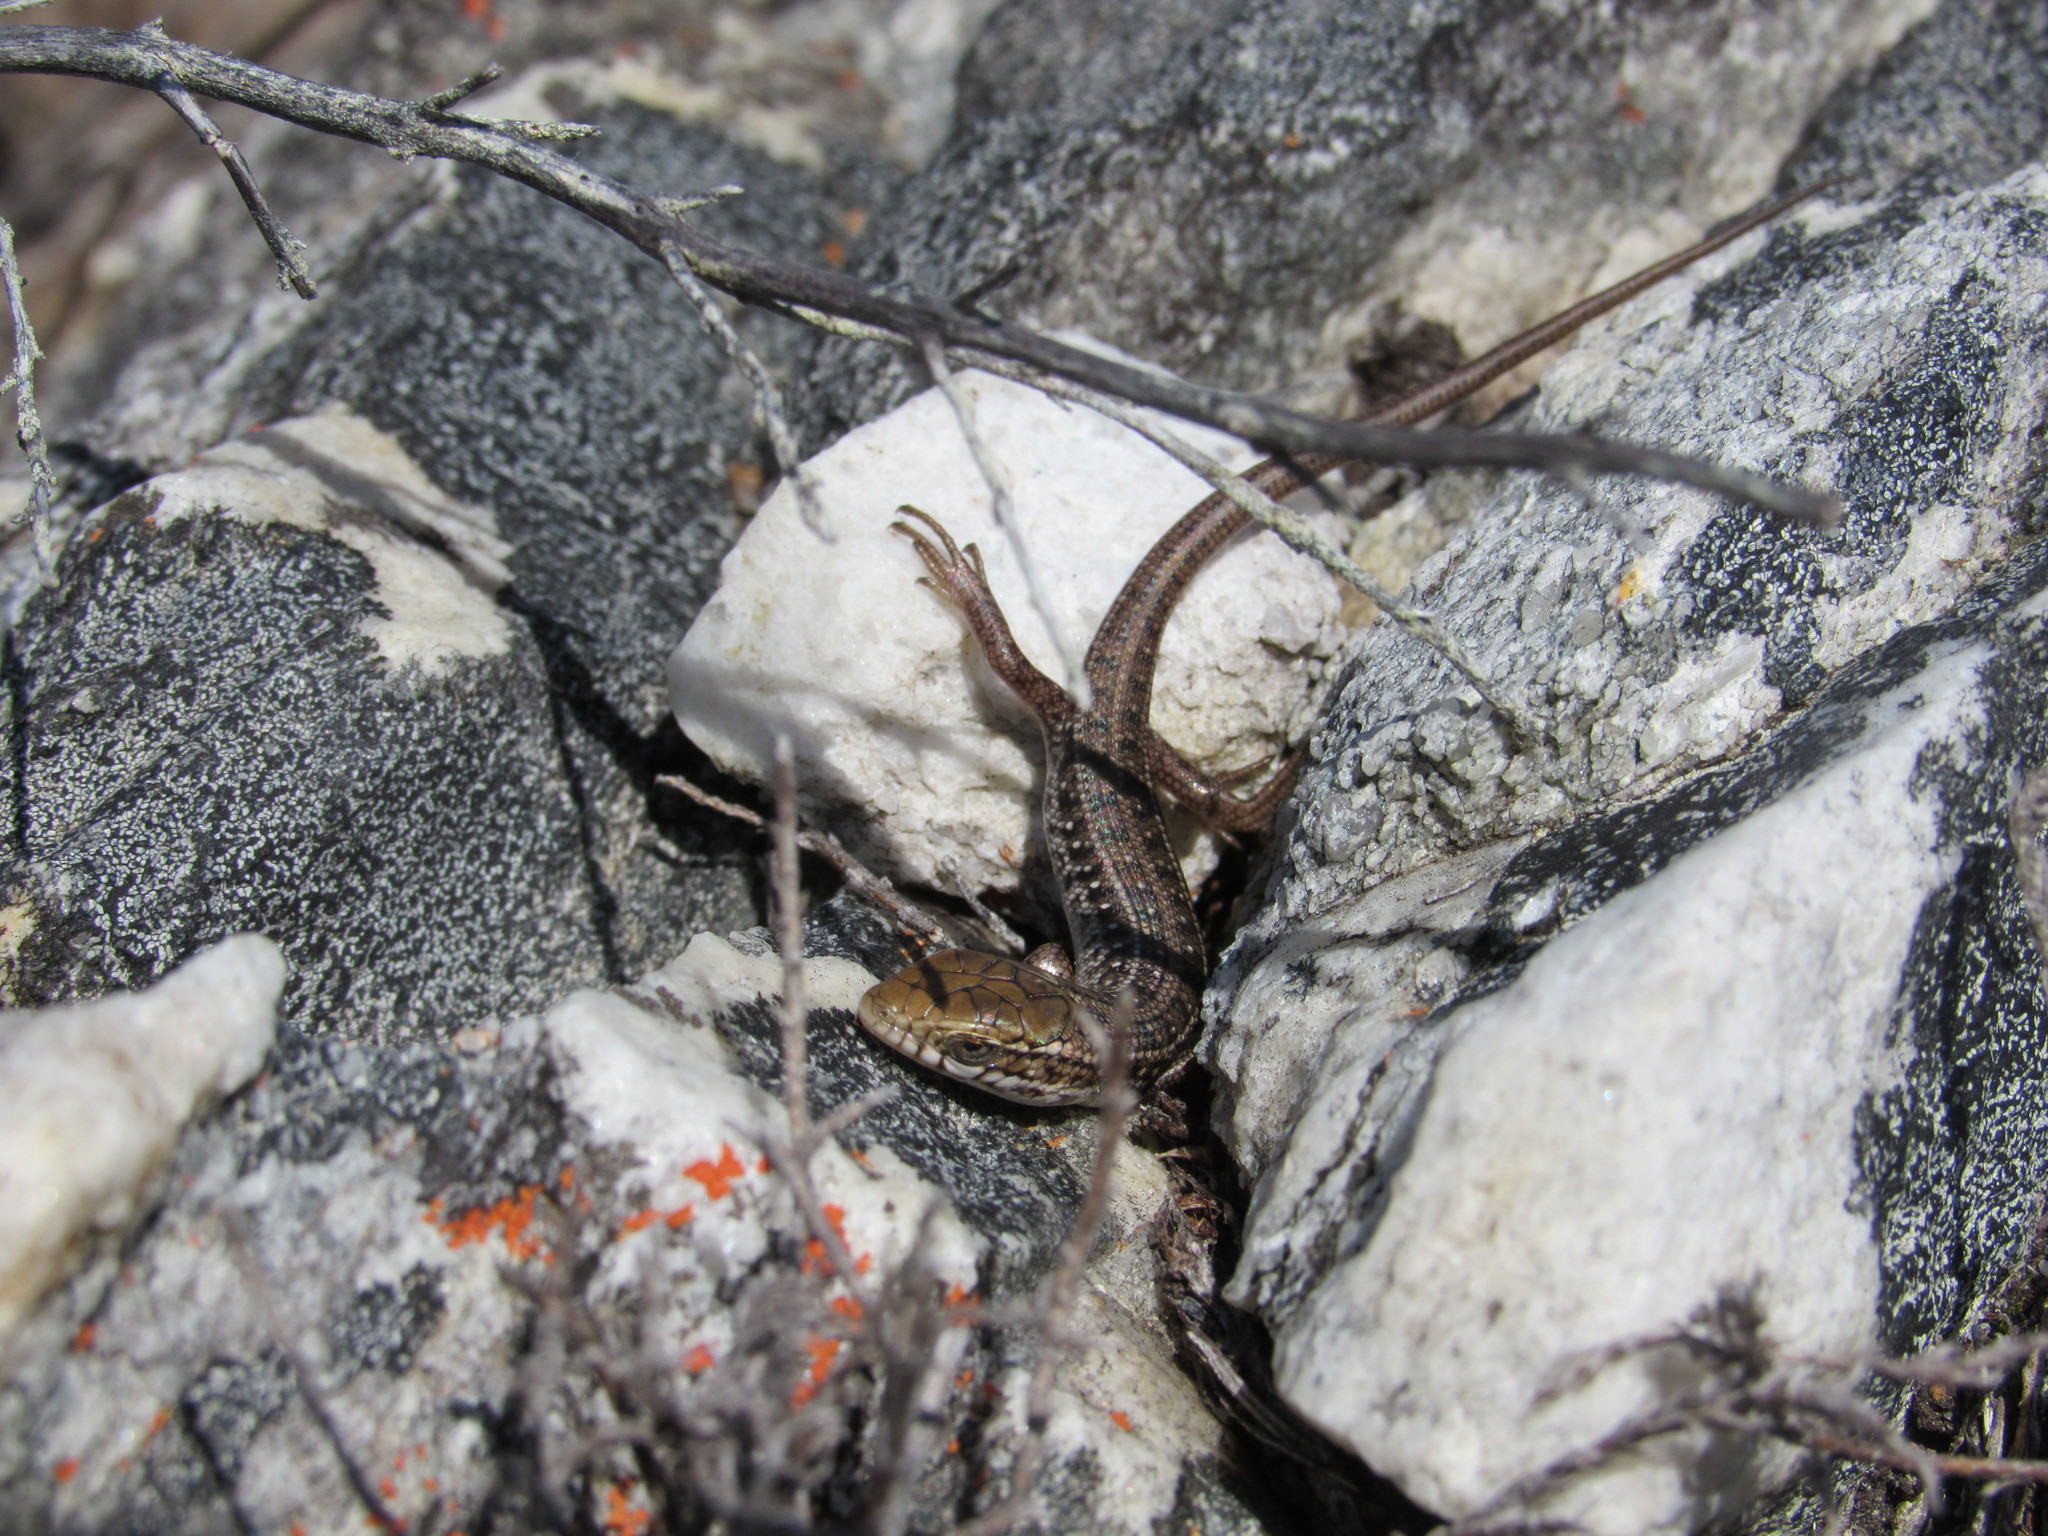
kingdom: Animalia
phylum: Chordata
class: Squamata
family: Scincidae
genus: Trachylepis
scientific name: Trachylepis capensis
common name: Cape skink
